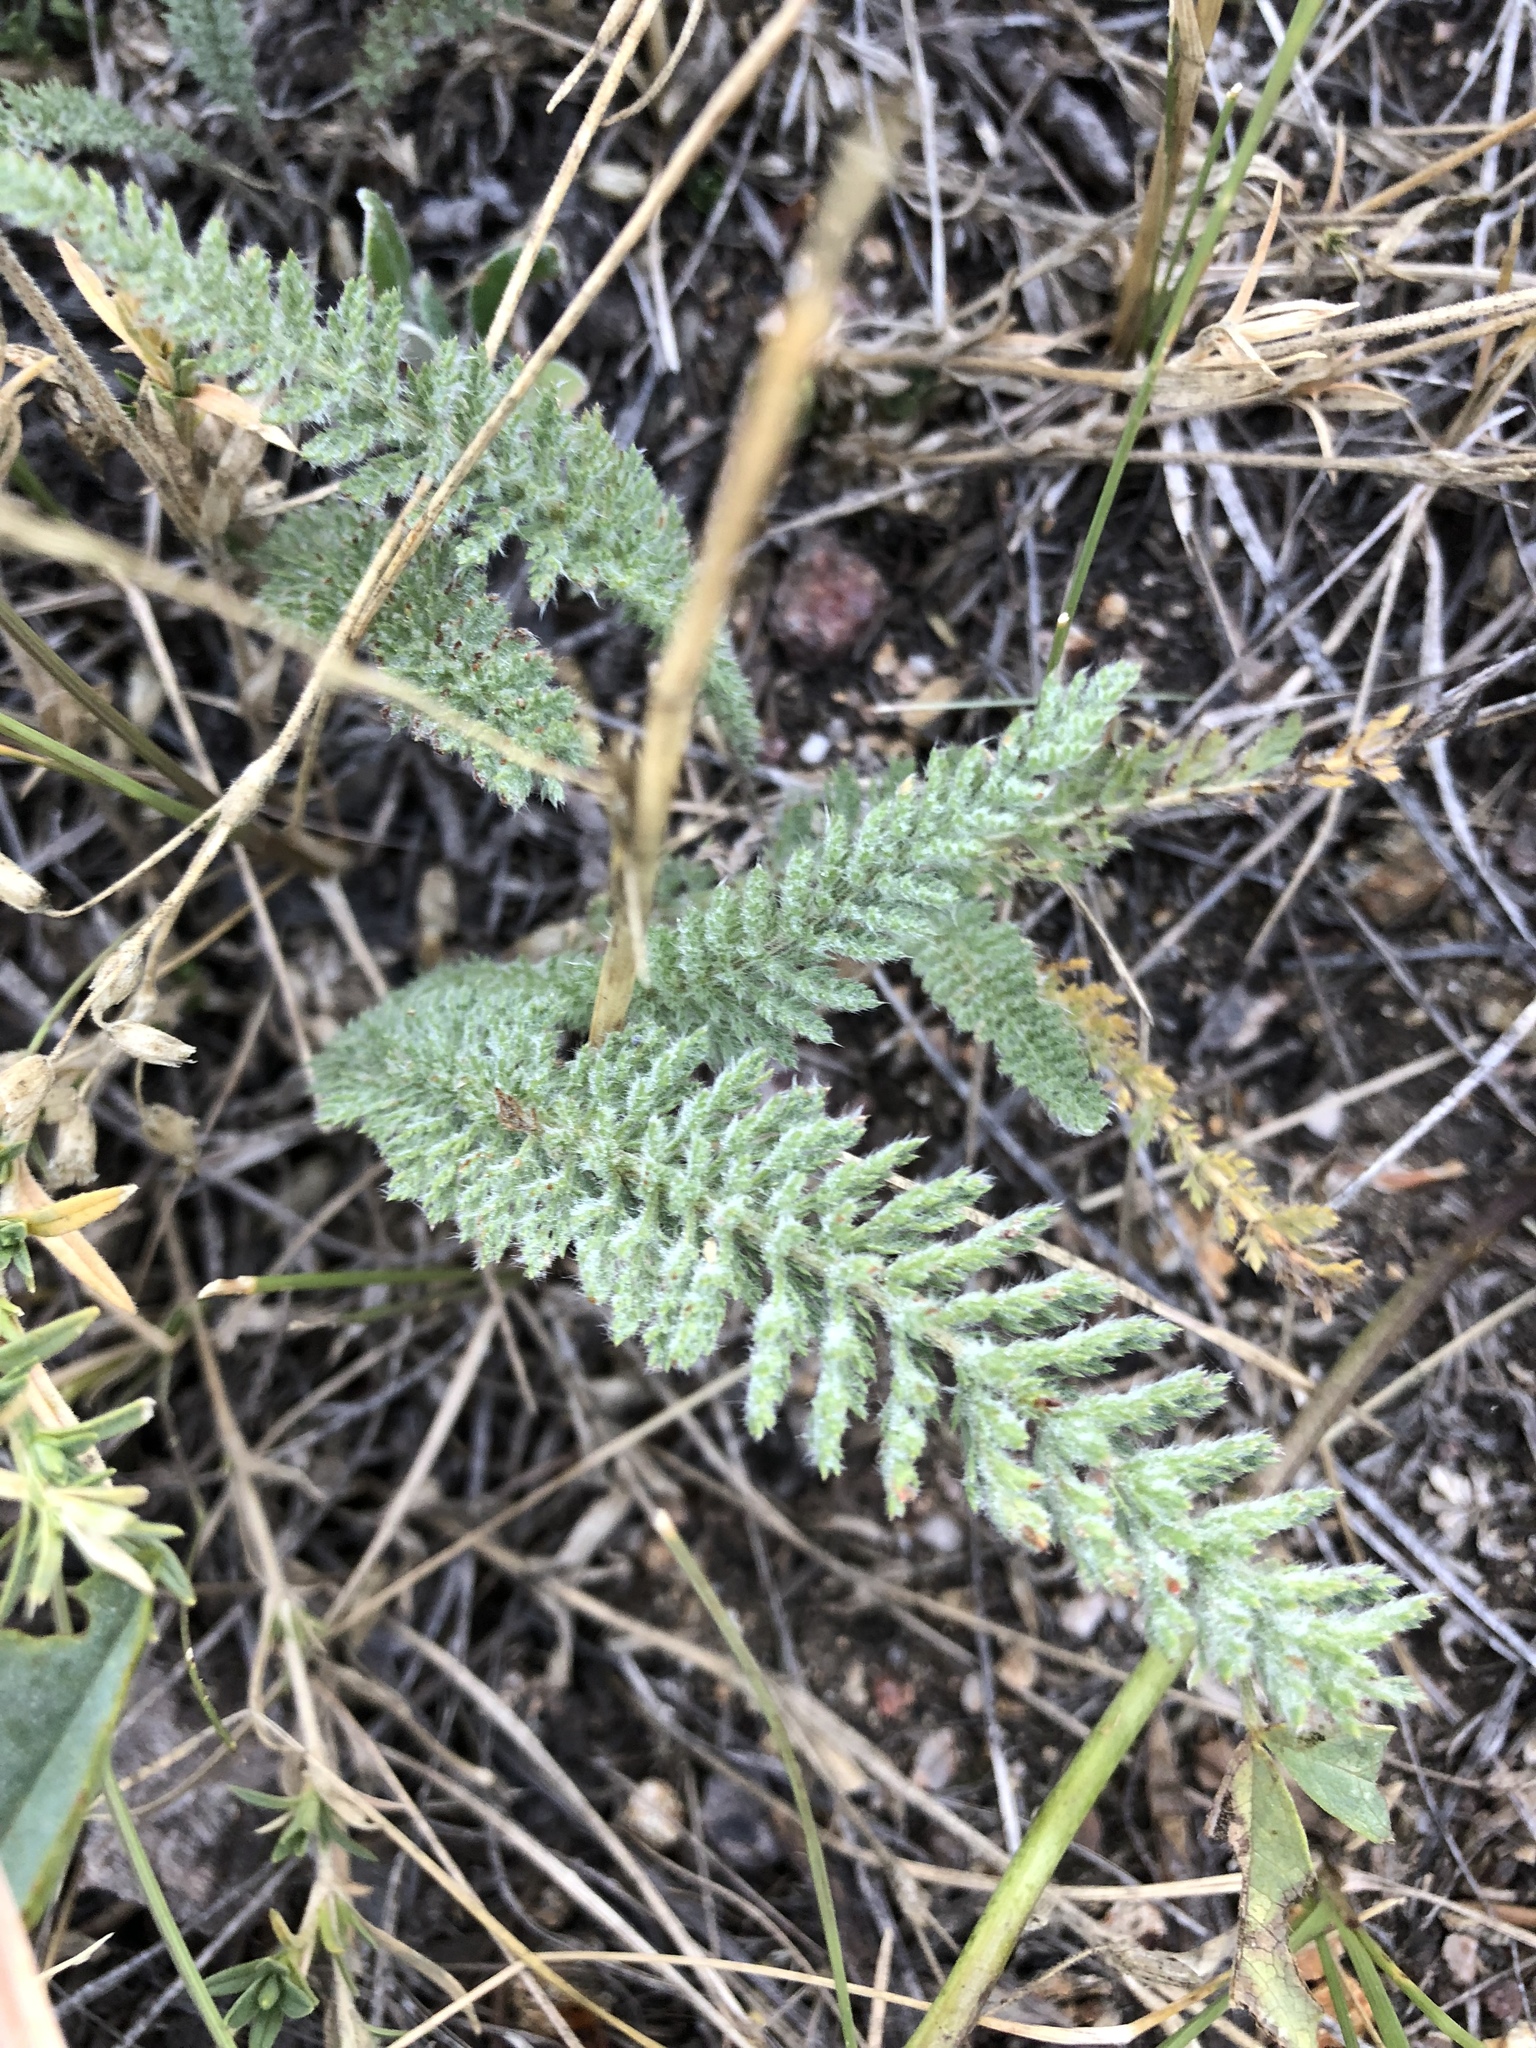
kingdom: Plantae
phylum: Tracheophyta
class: Magnoliopsida
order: Asterales
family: Asteraceae
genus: Achillea
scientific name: Achillea millefolium
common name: Yarrow
